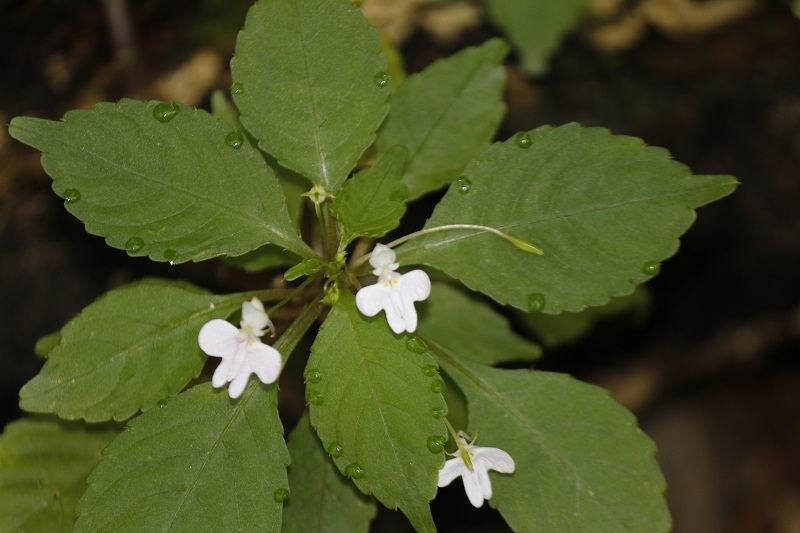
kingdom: Plantae
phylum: Tracheophyta
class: Magnoliopsida
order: Ericales
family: Balsaminaceae
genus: Impatiens
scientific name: Impatiens hochstetteri
